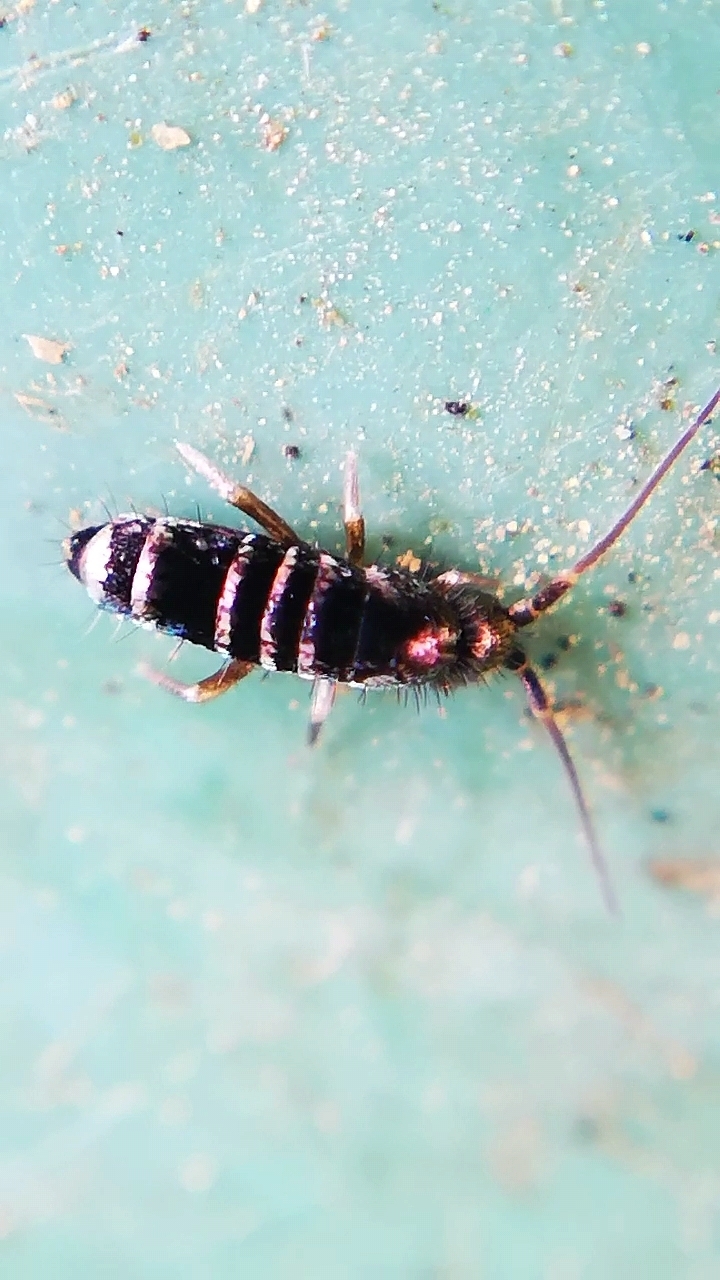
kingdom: Animalia
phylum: Arthropoda
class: Collembola
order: Entomobryomorpha
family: Tomoceridae
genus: Tomocerus
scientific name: Tomocerus vulgaris
